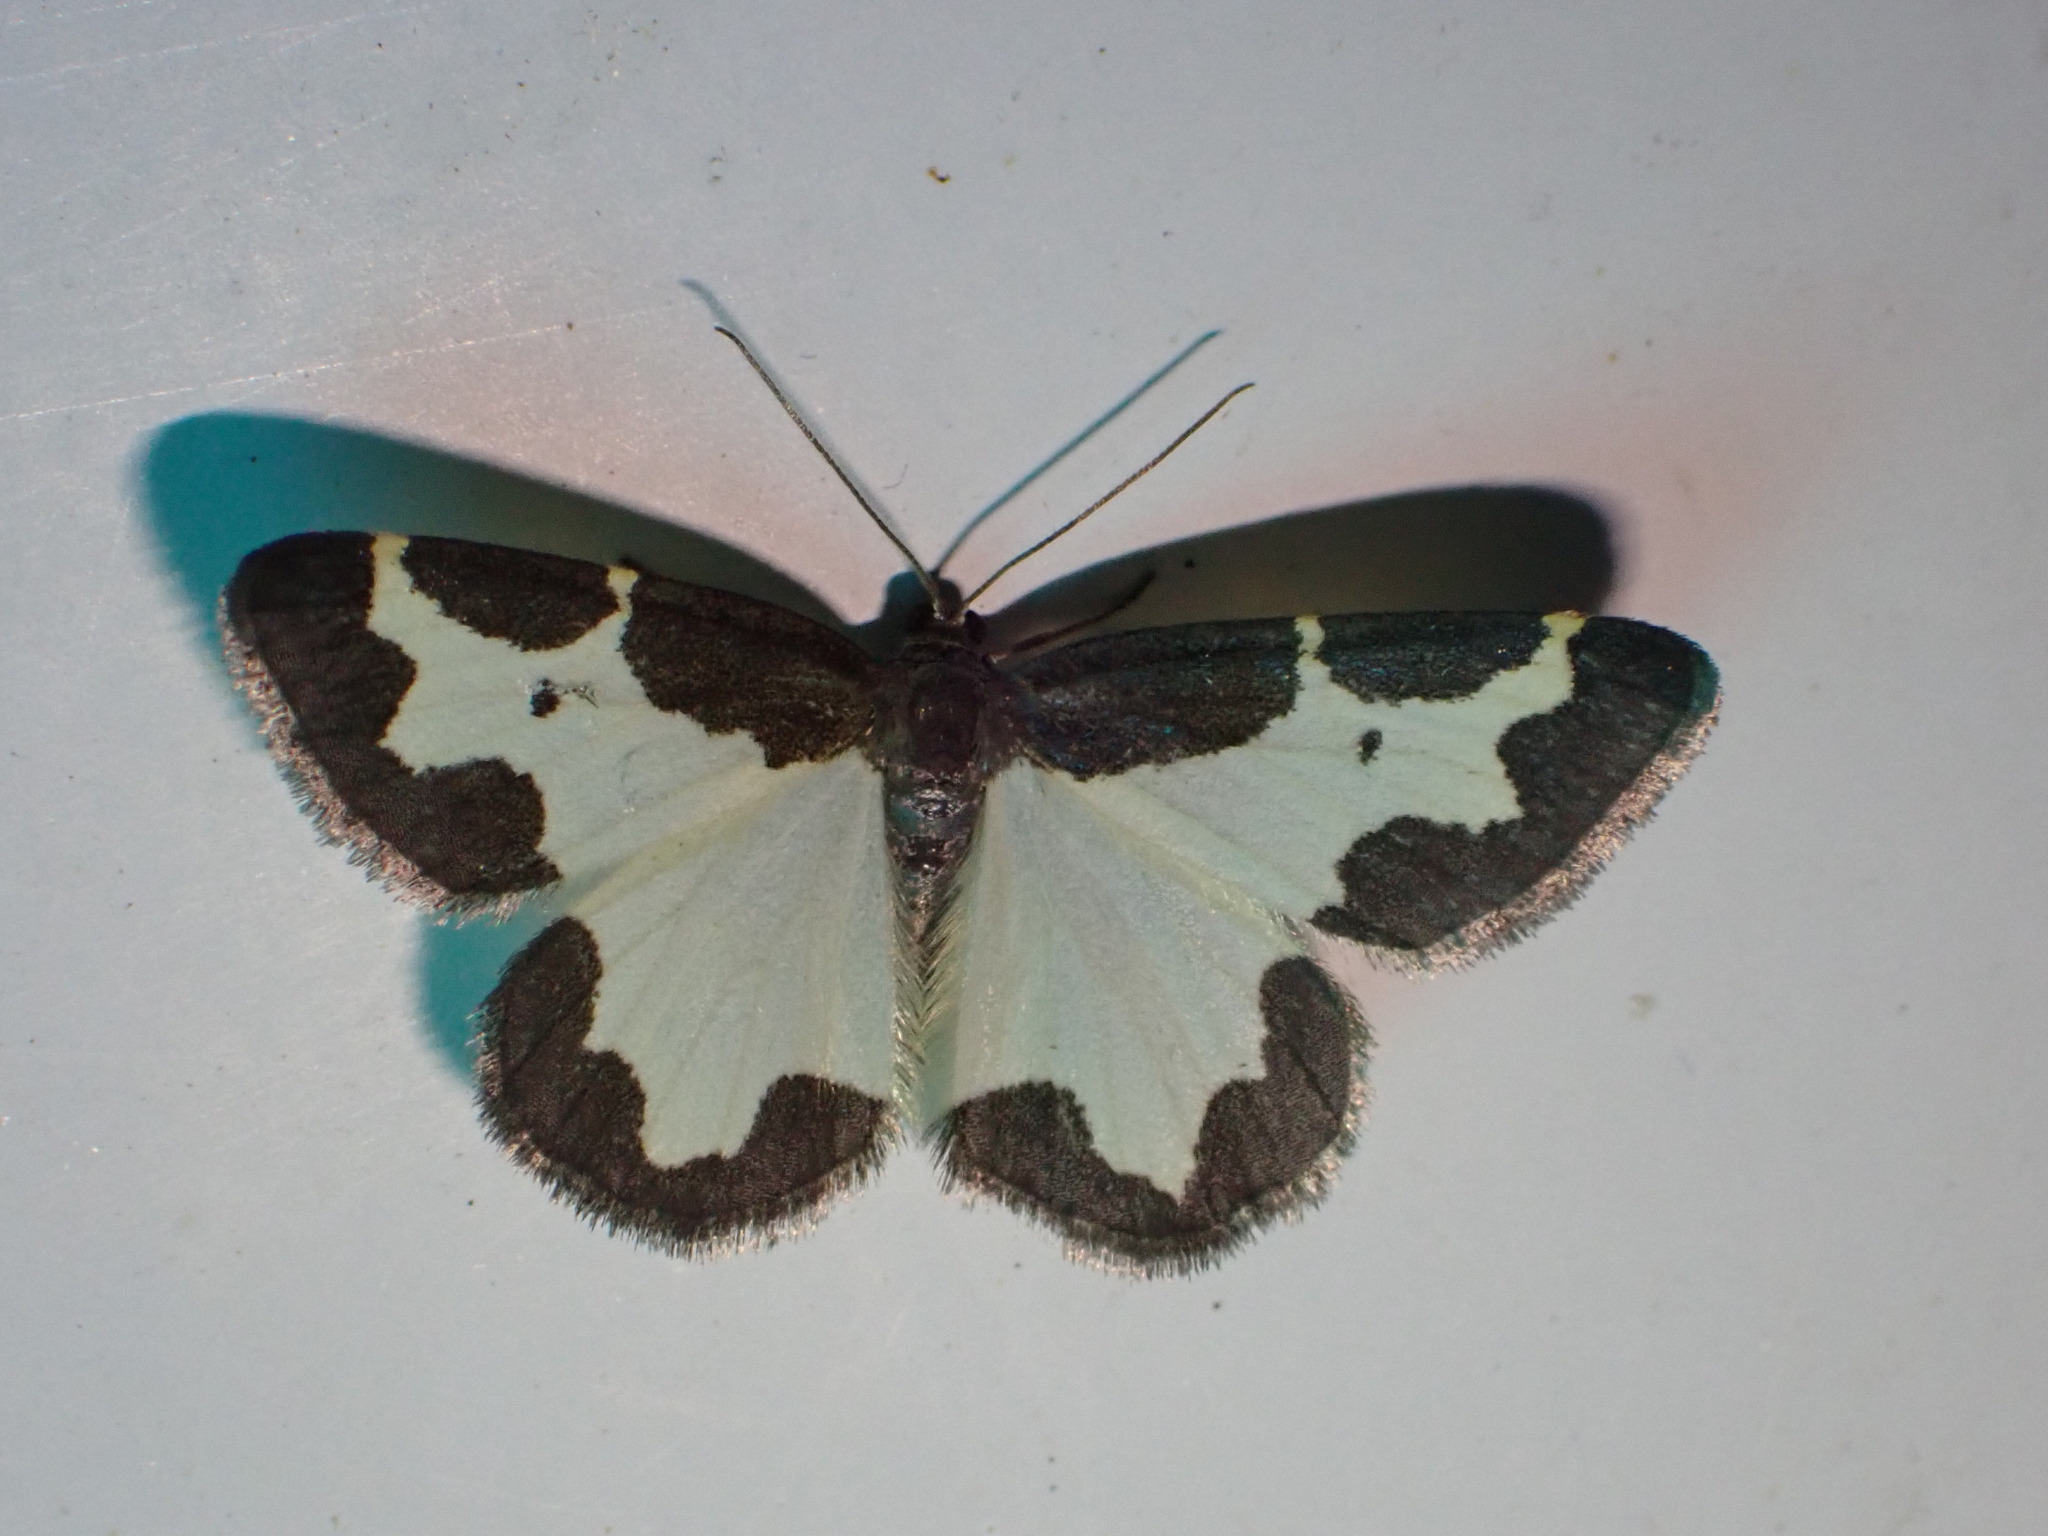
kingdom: Animalia
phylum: Arthropoda
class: Insecta
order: Lepidoptera
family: Geometridae
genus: Lomaspilis
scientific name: Lomaspilis marginata
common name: Clouded border
